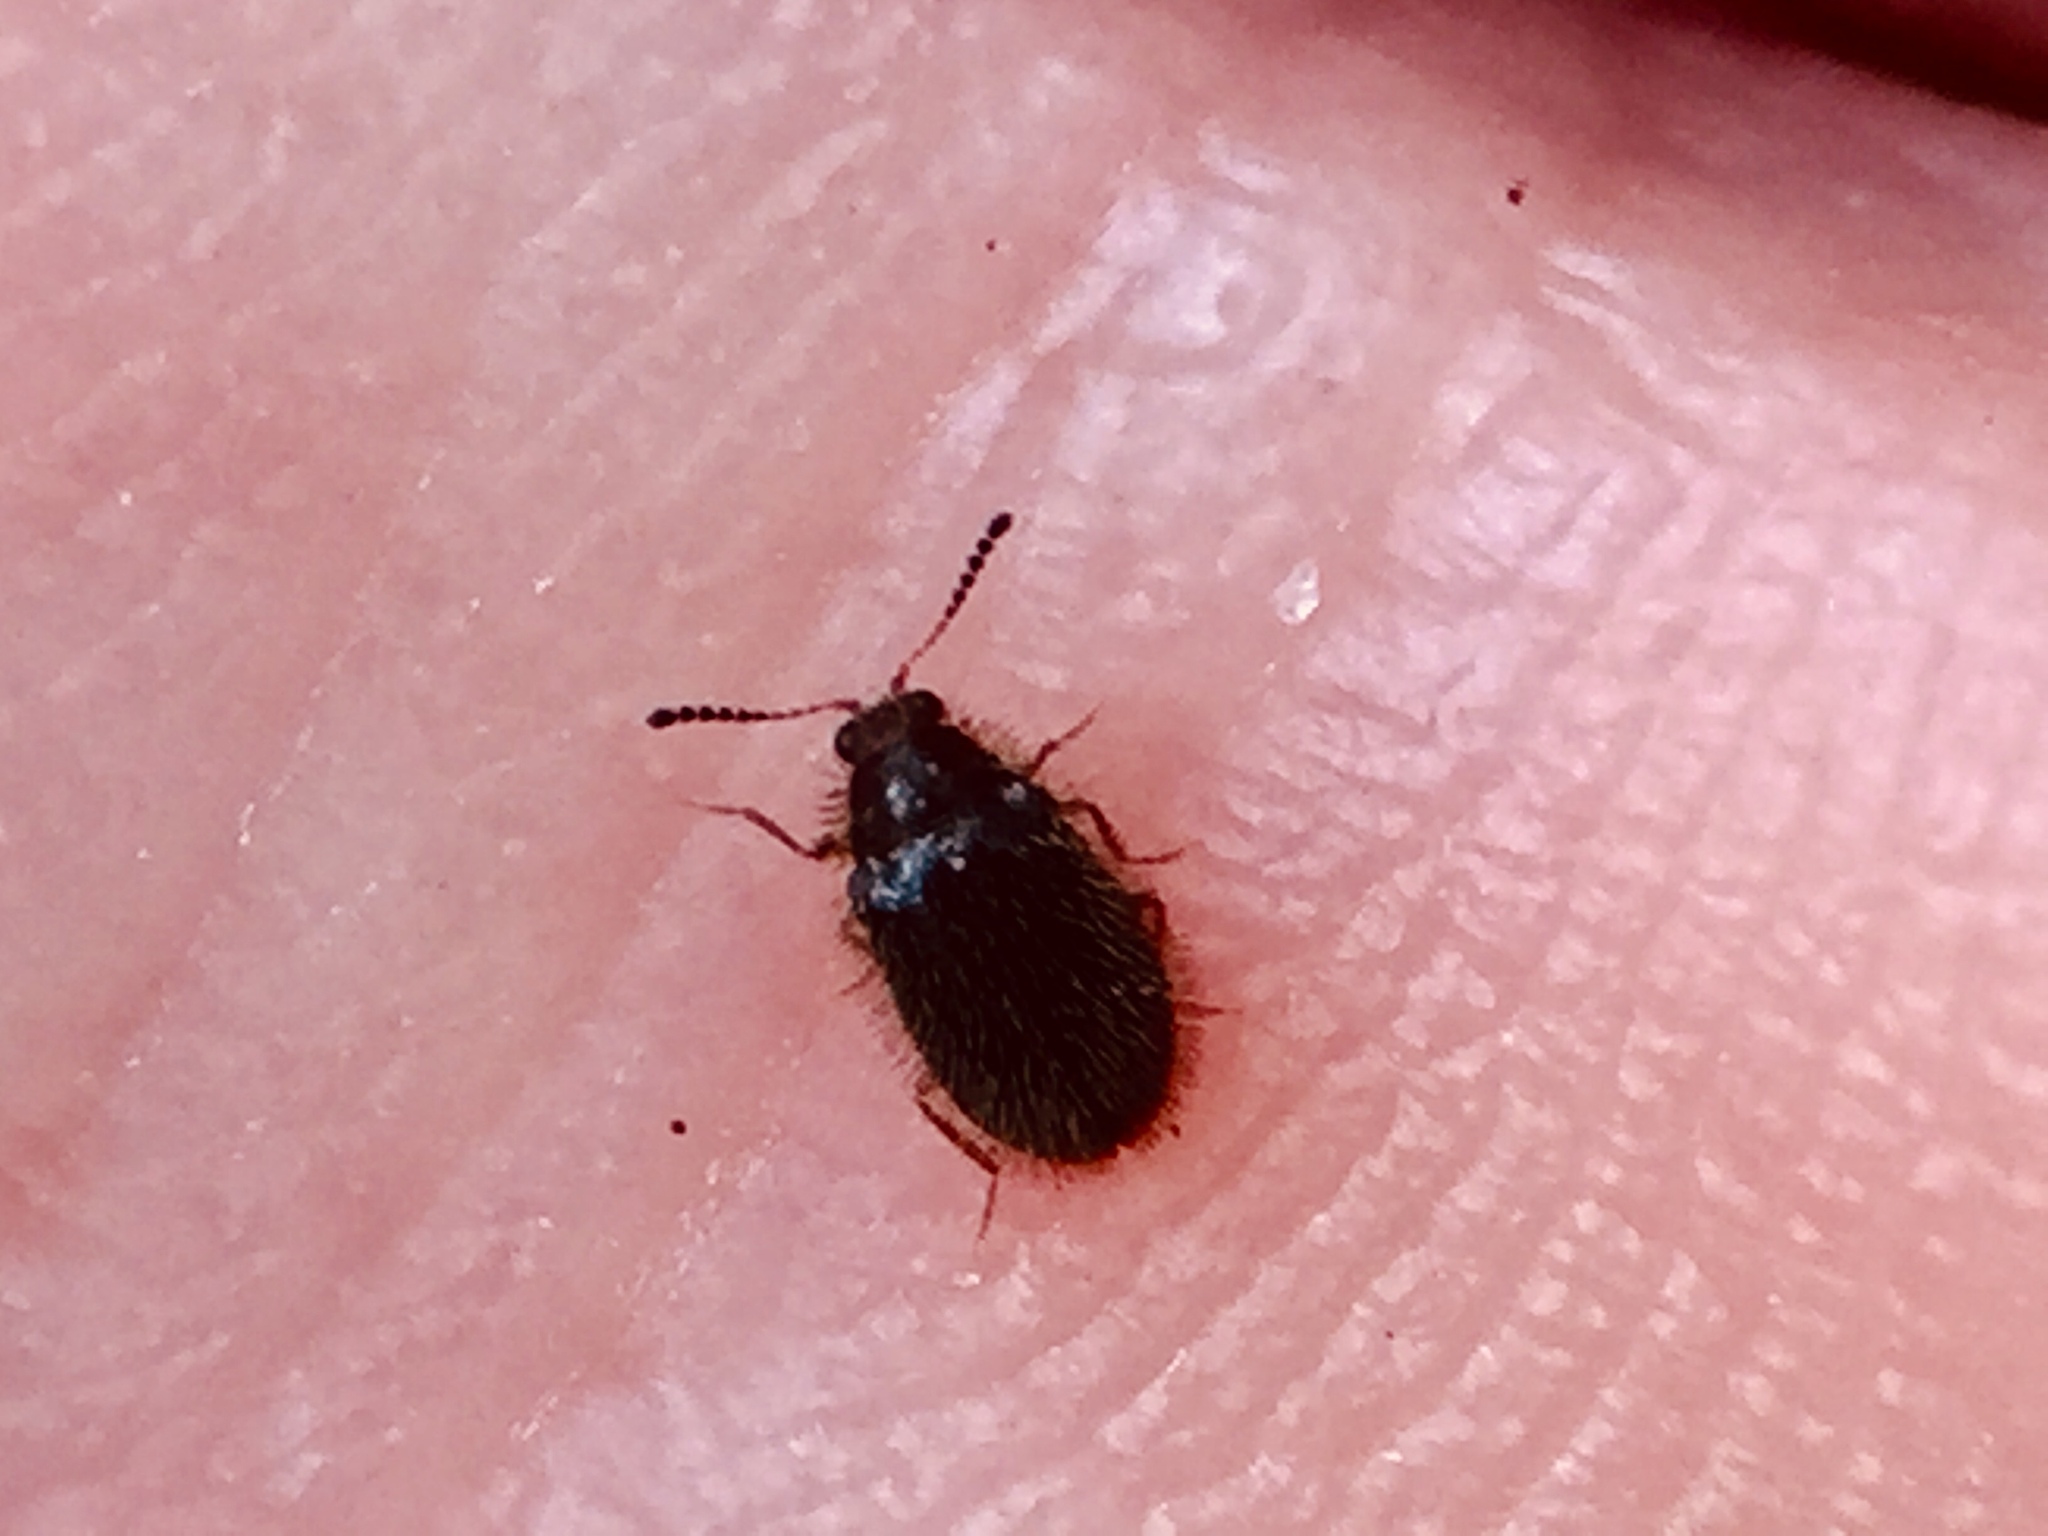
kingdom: Animalia
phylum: Arthropoda
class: Insecta
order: Coleoptera
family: Dermestidae
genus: Hexanodes
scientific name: Hexanodes
